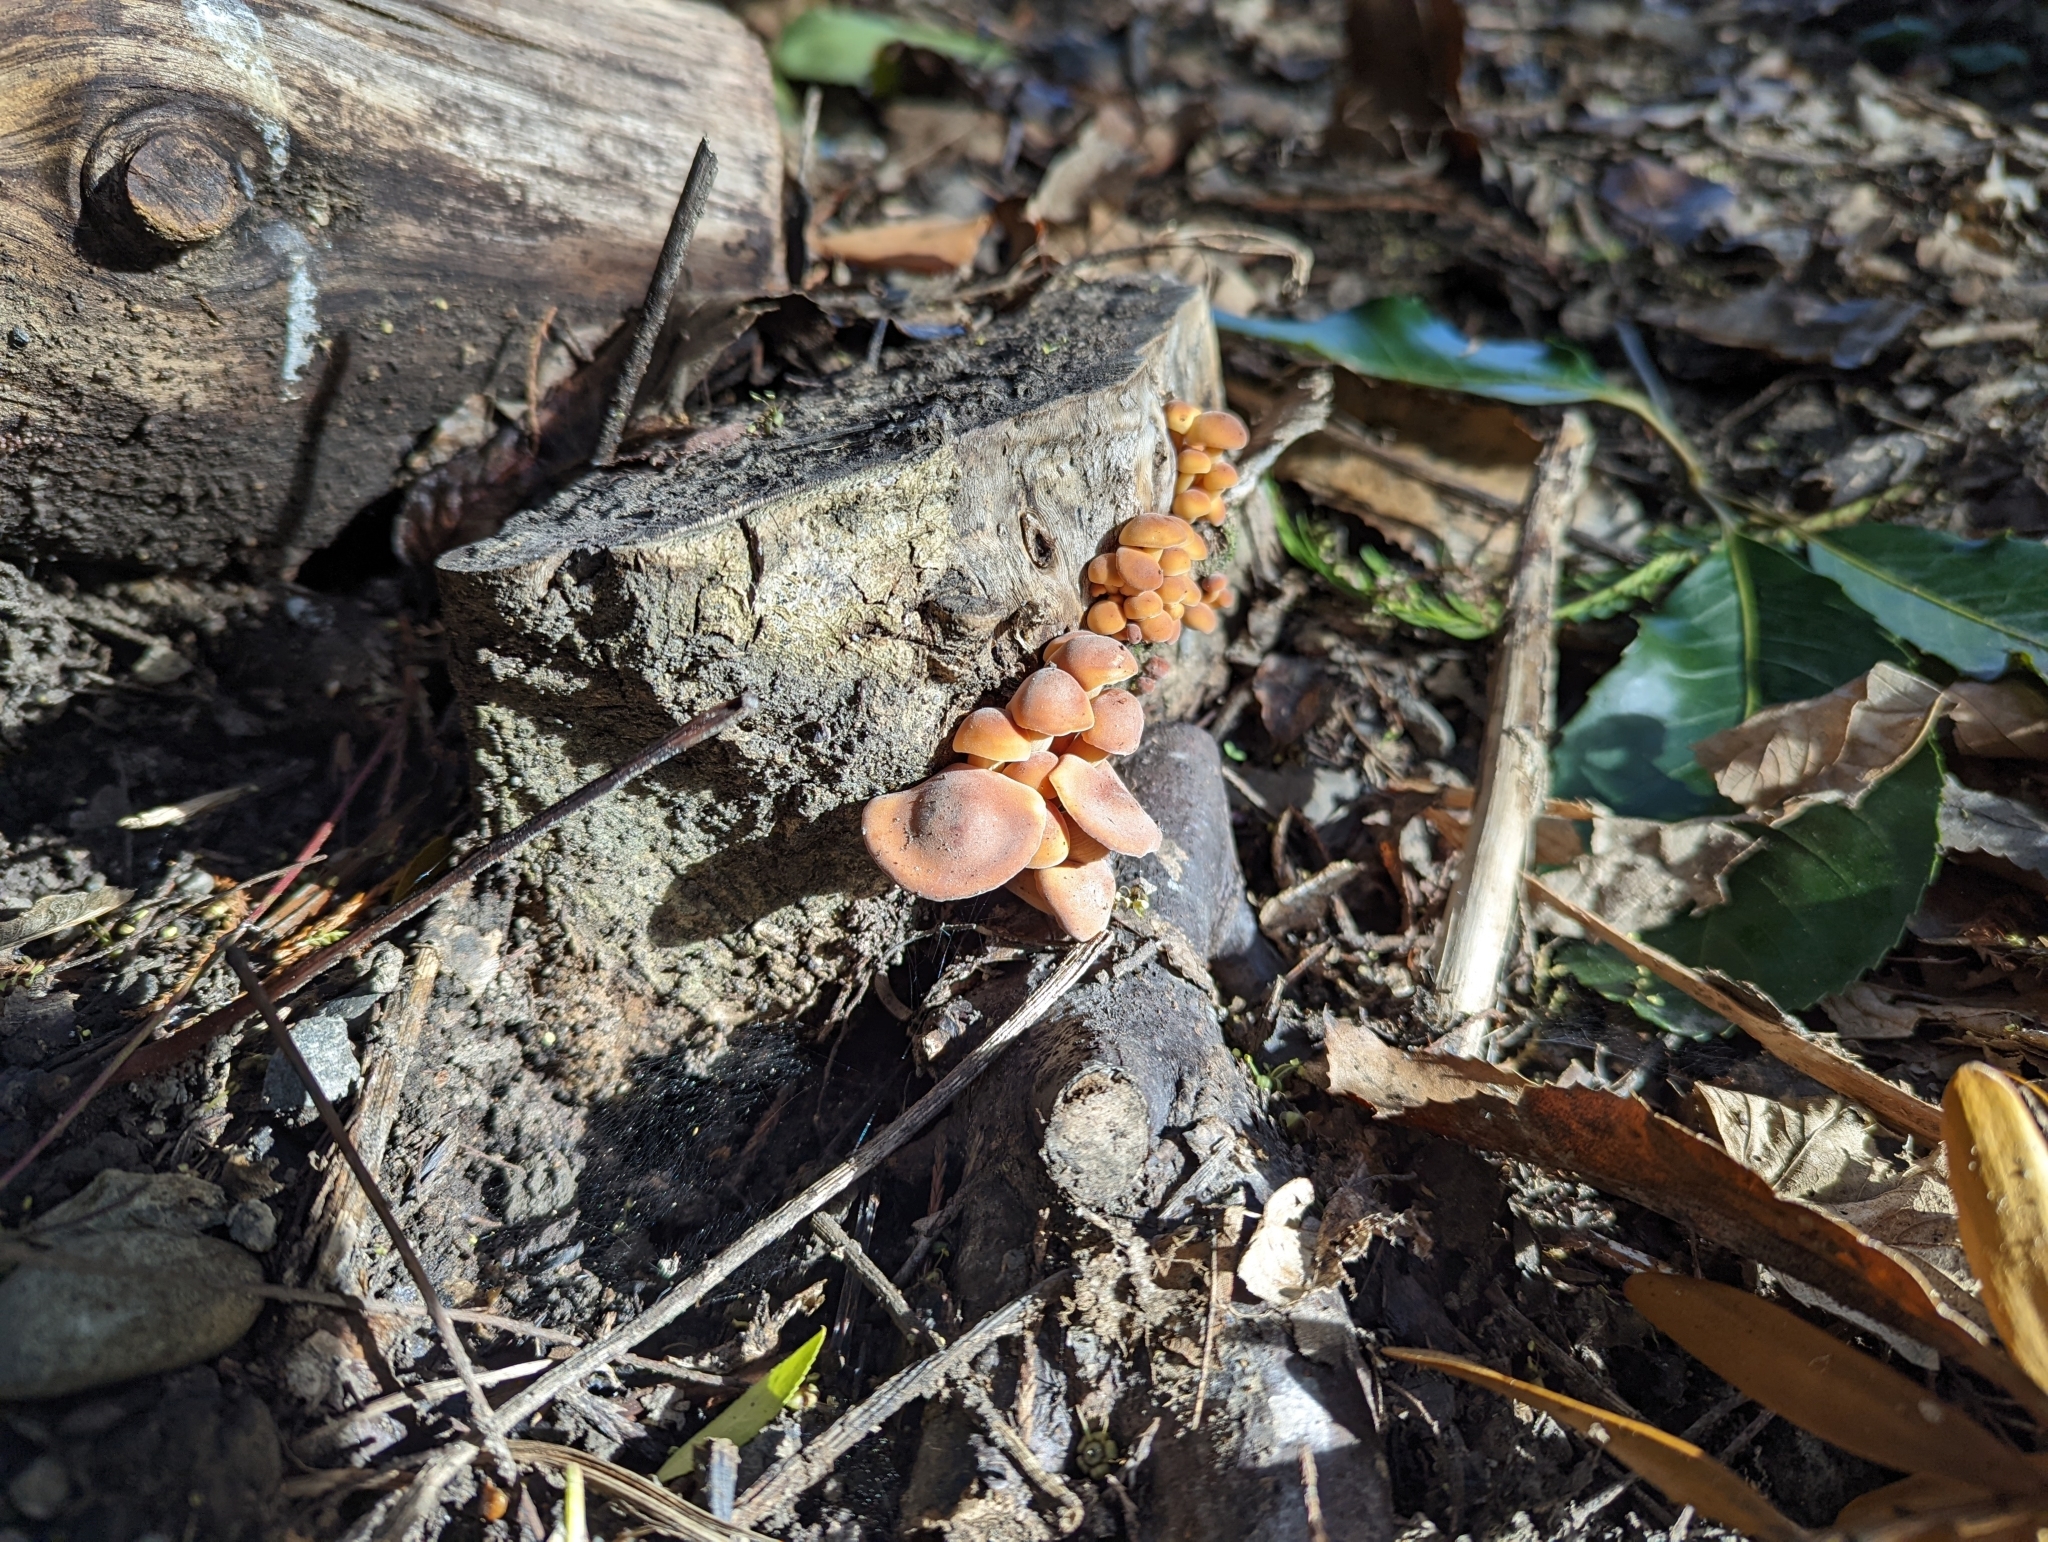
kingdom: Fungi
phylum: Basidiomycota
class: Agaricomycetes
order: Agaricales
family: Physalacriaceae
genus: Flammulina
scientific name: Flammulina velutipes
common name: Velvet shank
